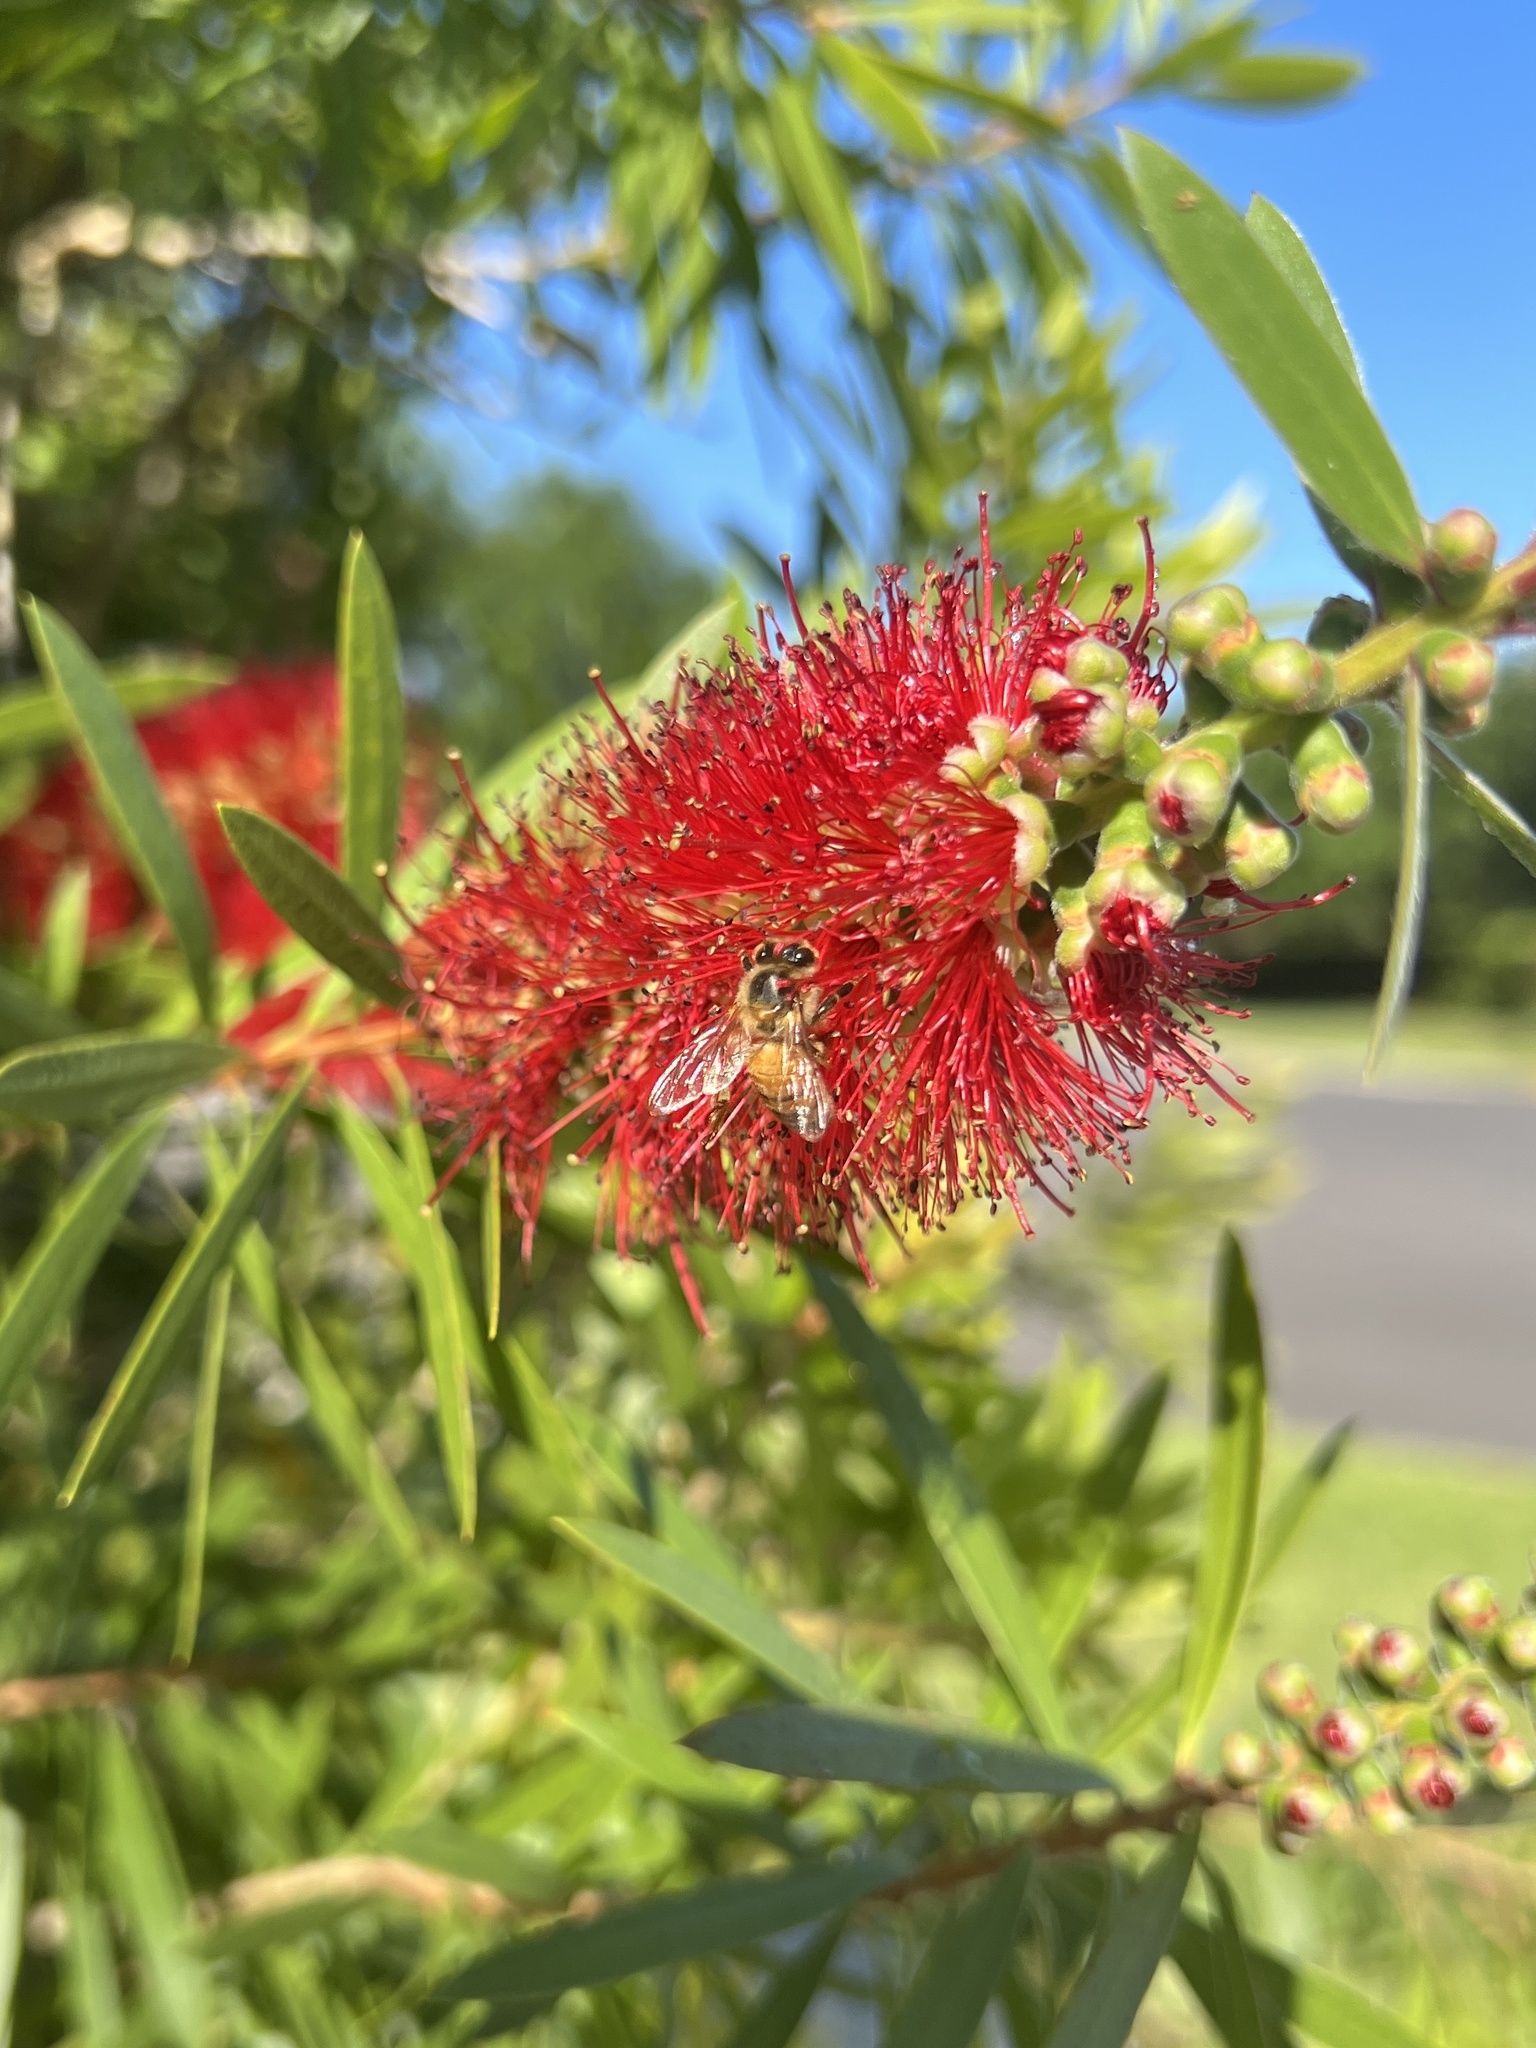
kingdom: Animalia
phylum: Arthropoda
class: Insecta
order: Hymenoptera
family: Apidae
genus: Apis
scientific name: Apis mellifera
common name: Honey bee
